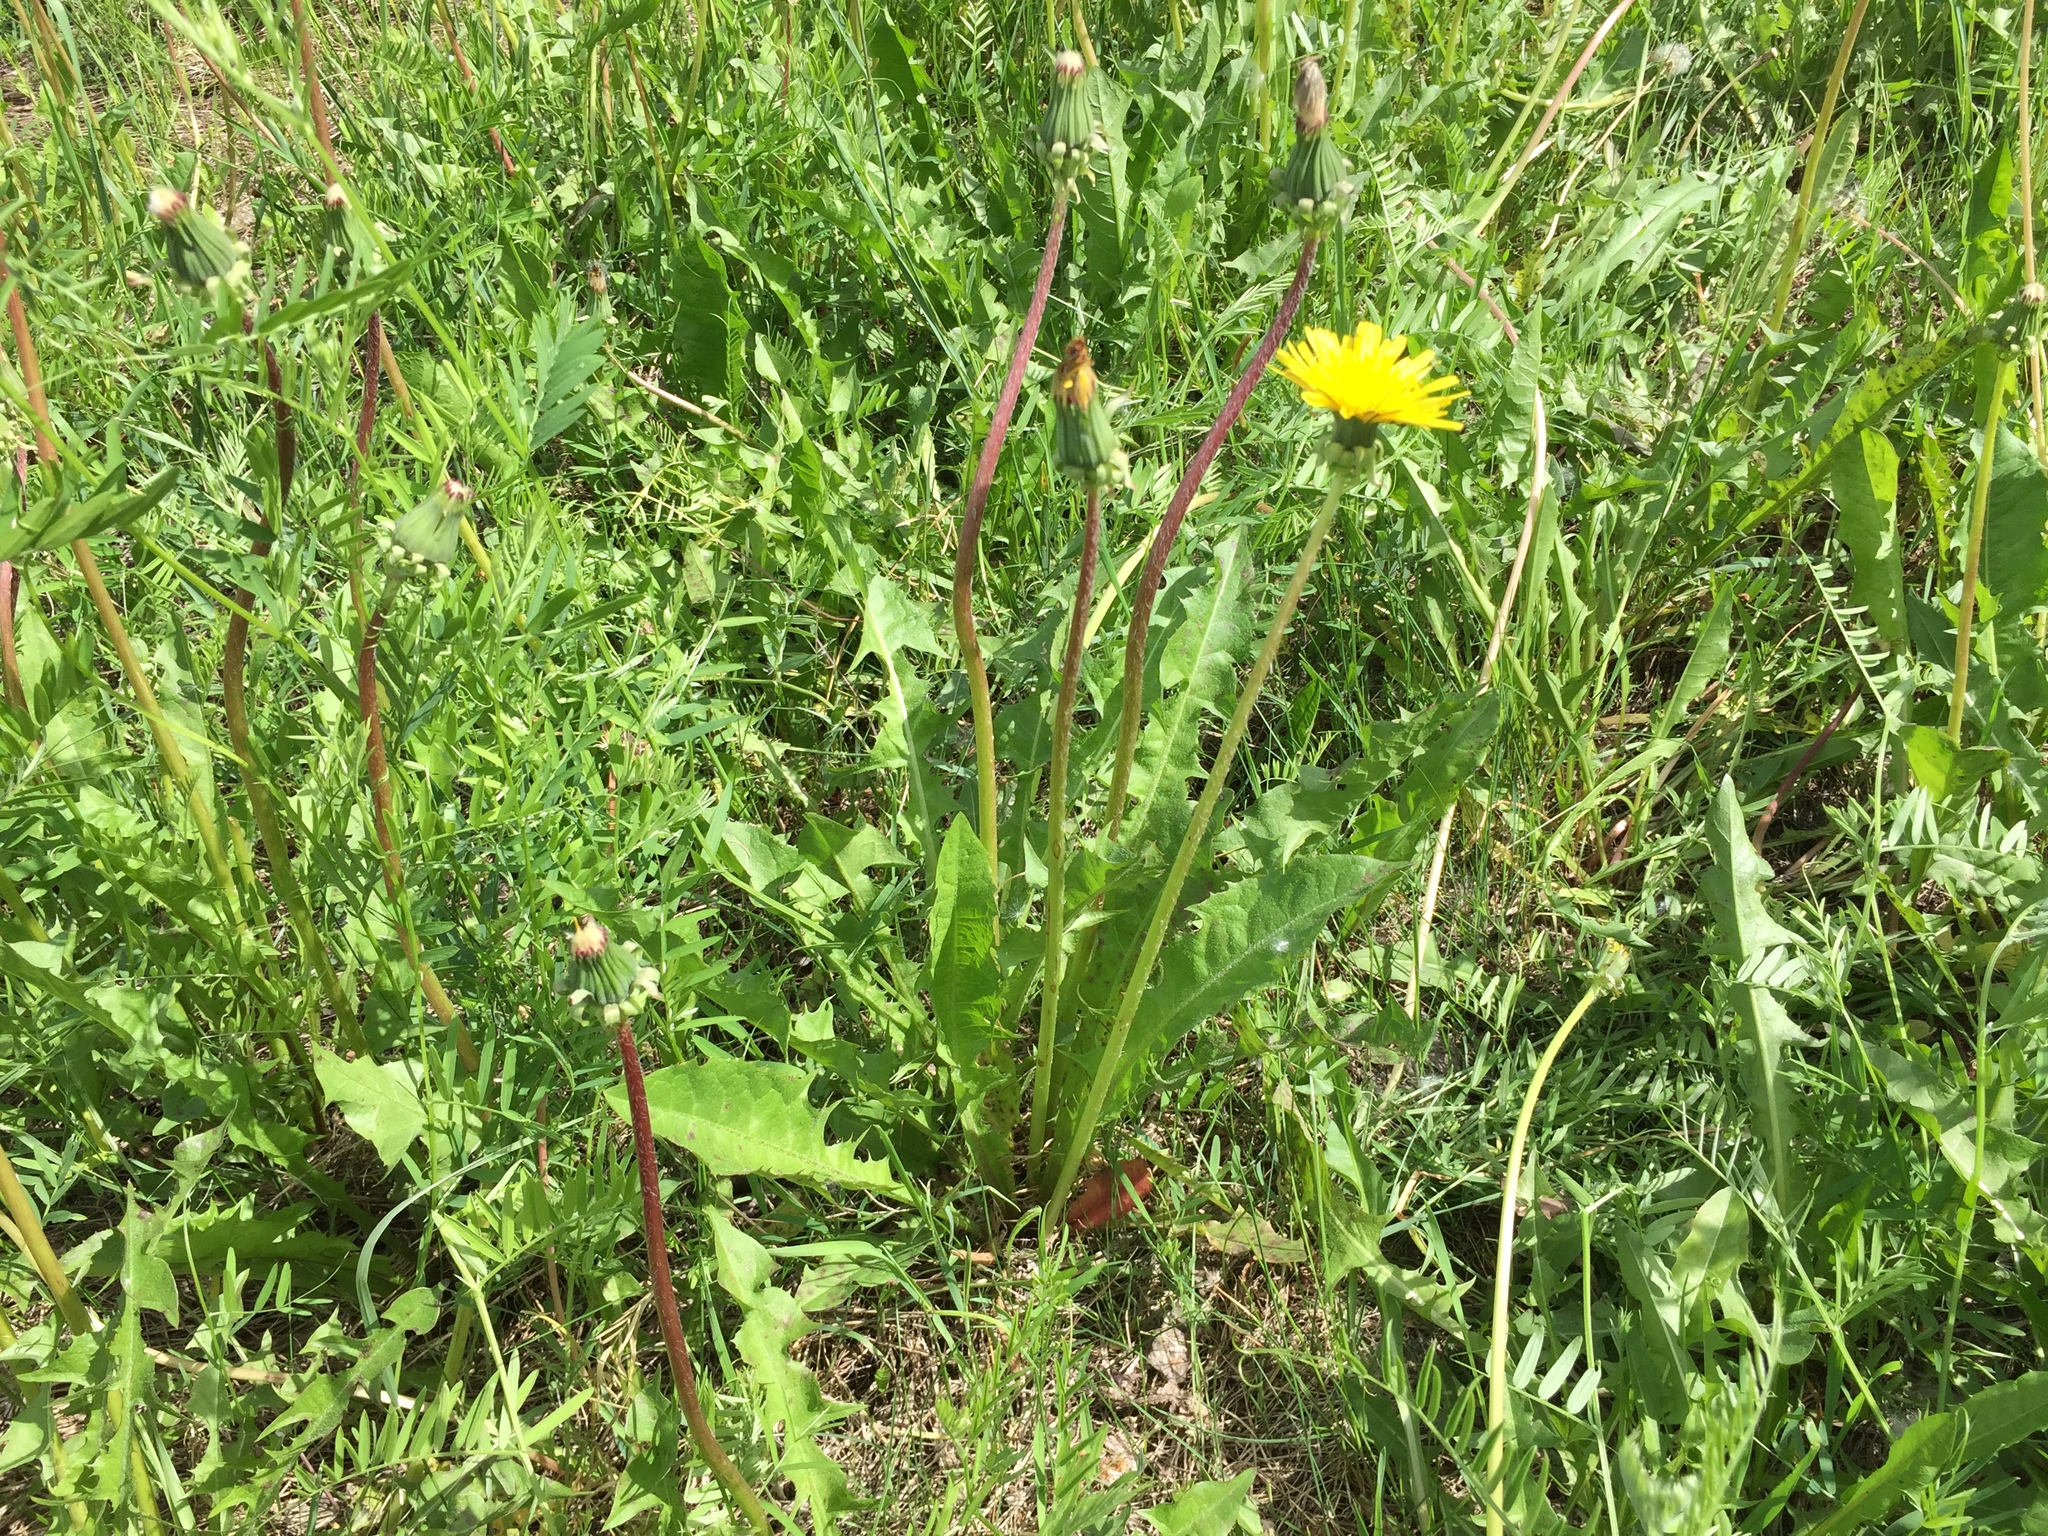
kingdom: Plantae
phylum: Tracheophyta
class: Magnoliopsida
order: Asterales
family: Asteraceae
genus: Taraxacum
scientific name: Taraxacum officinale
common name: Common dandelion
